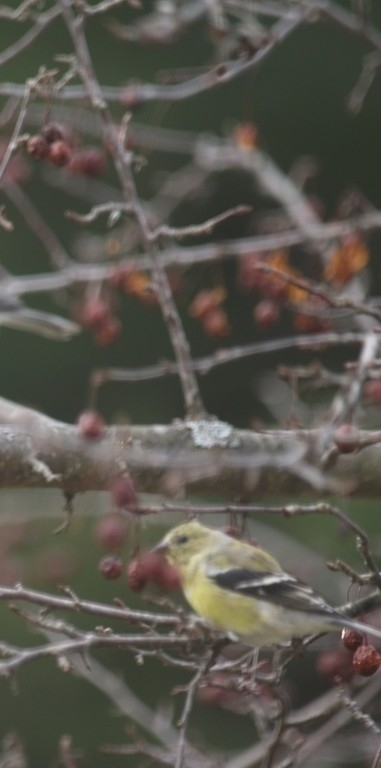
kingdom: Animalia
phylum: Chordata
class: Aves
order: Passeriformes
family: Fringillidae
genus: Spinus
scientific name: Spinus tristis
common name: American goldfinch
